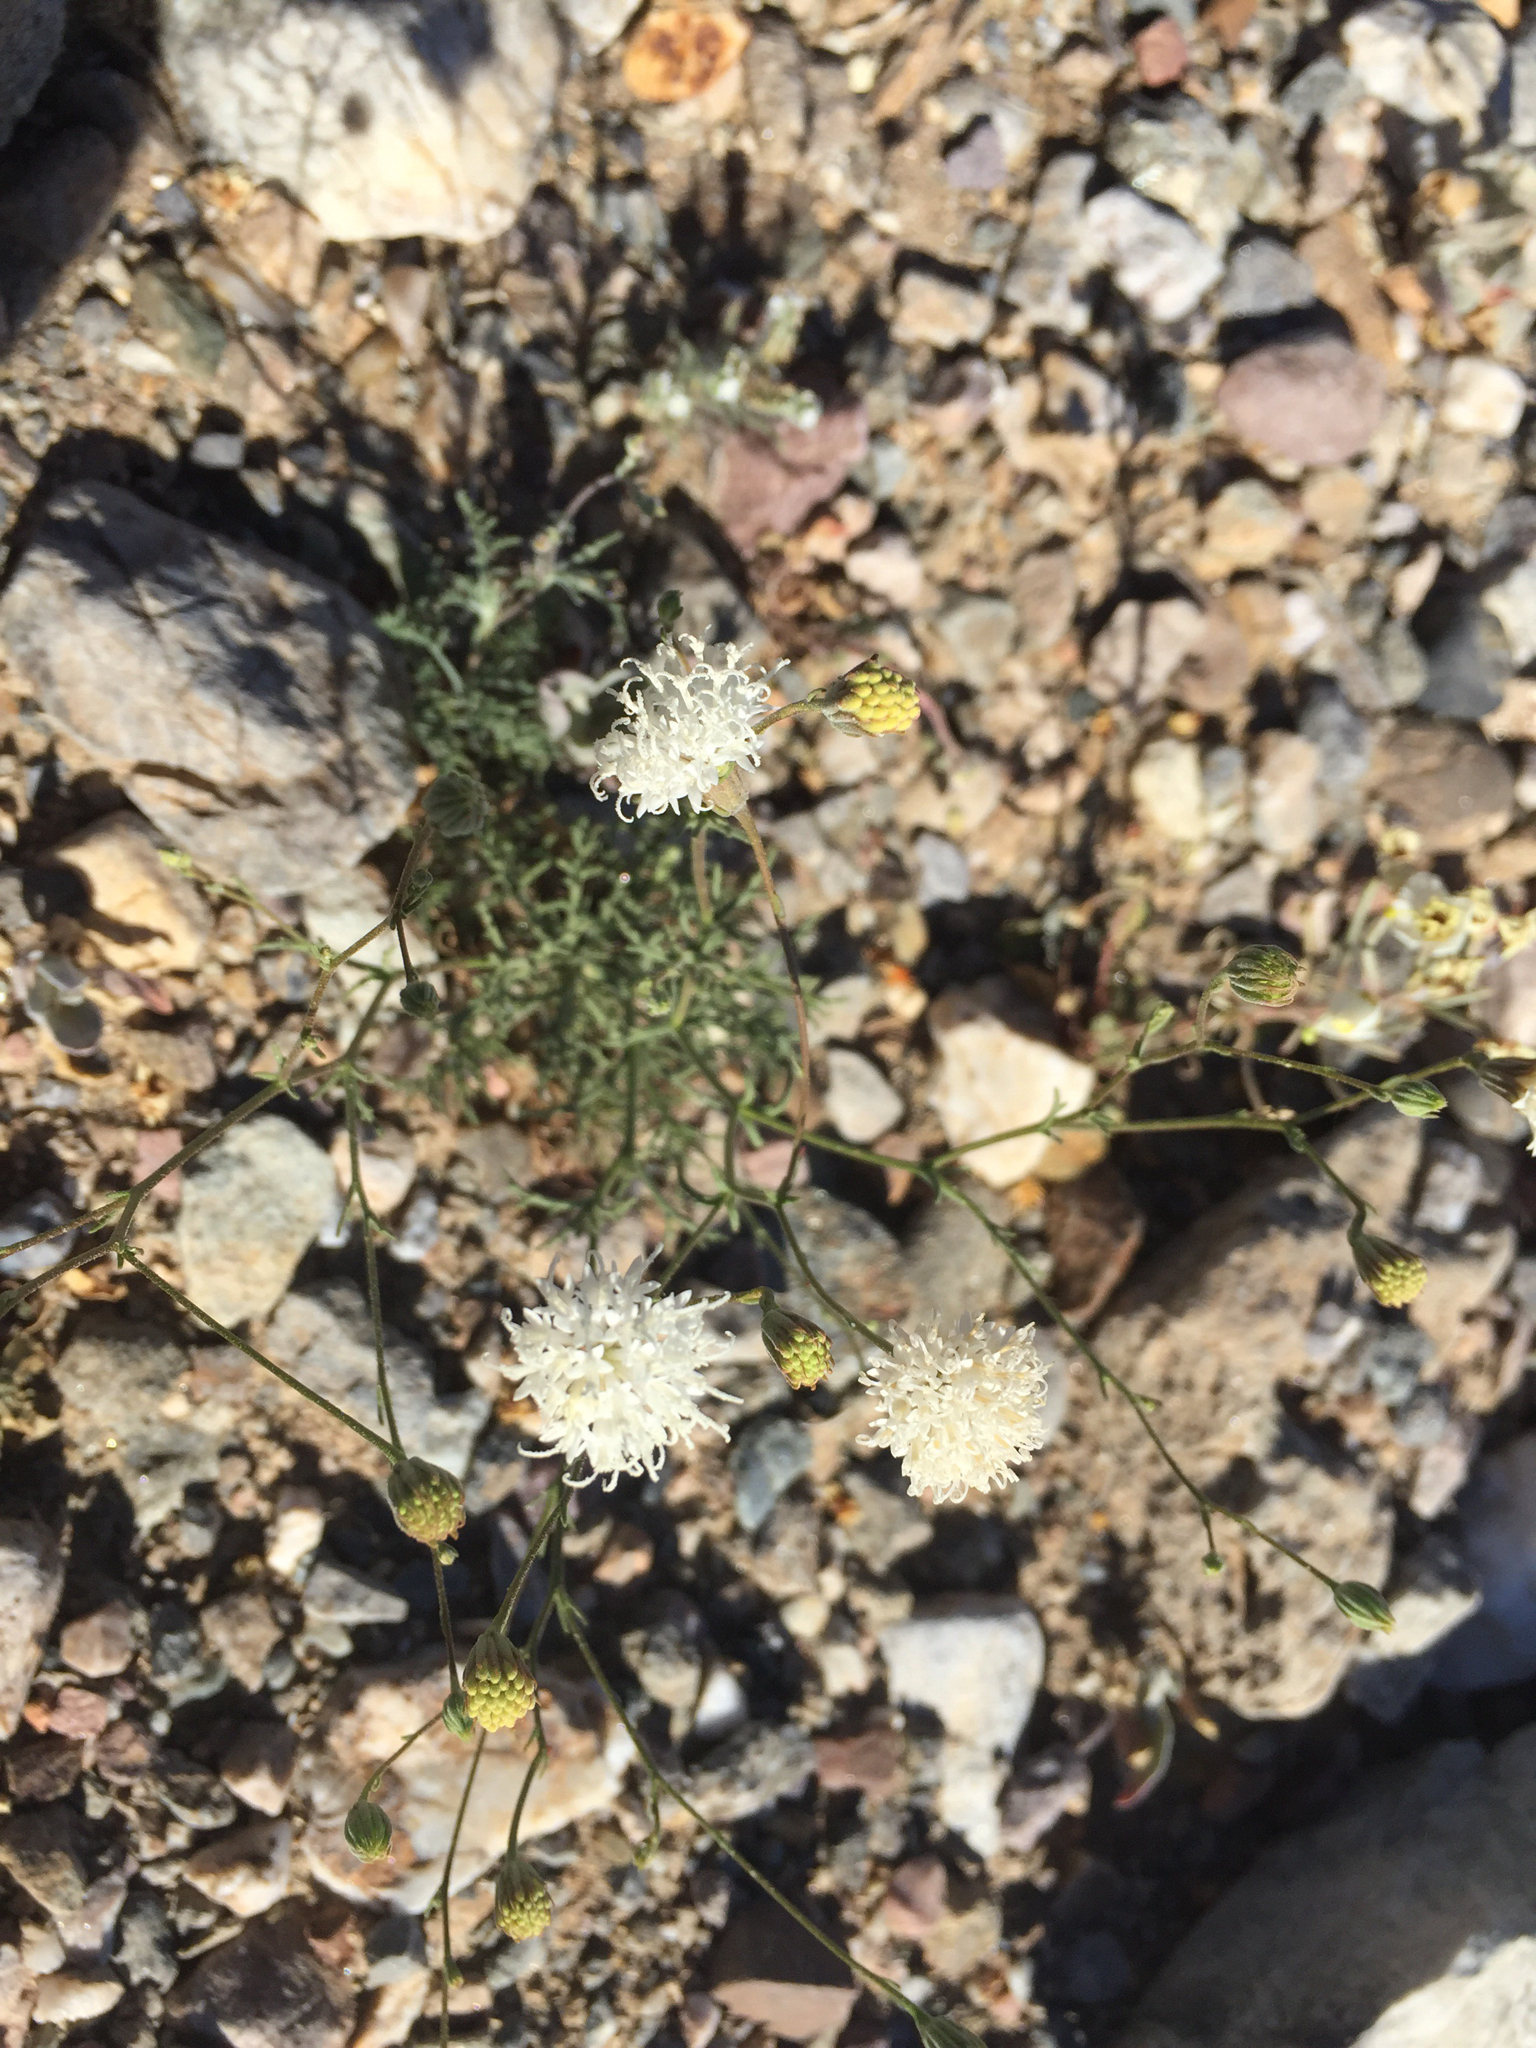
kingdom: Plantae
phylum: Tracheophyta
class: Magnoliopsida
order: Asterales
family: Asteraceae
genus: Chaenactis
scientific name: Chaenactis carphoclinia
